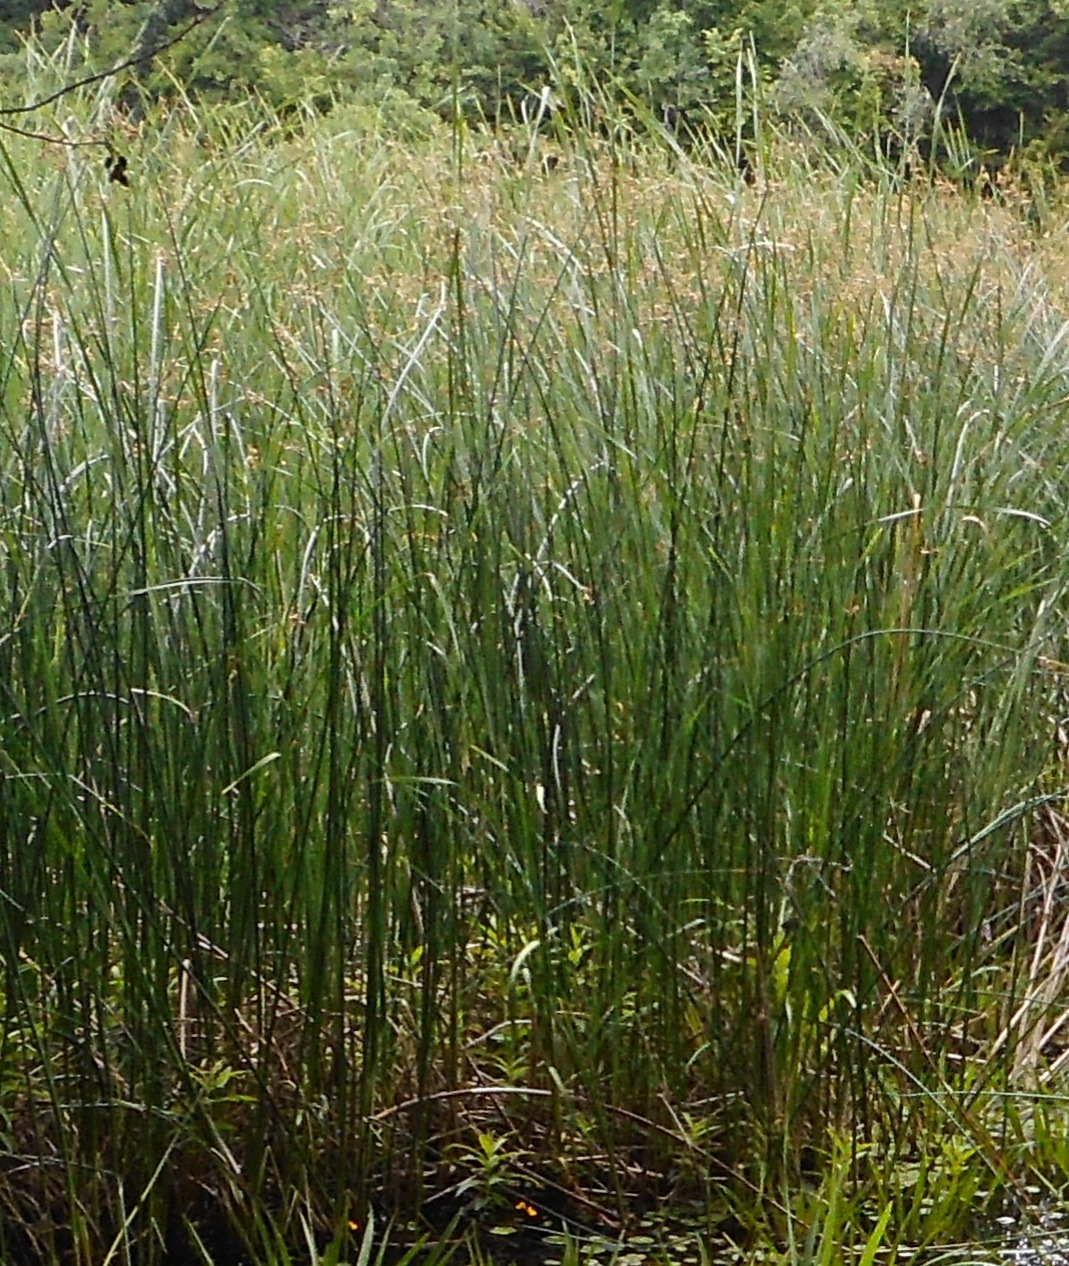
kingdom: Plantae
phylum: Tracheophyta
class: Liliopsida
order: Poales
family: Cyperaceae
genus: Schoenoplectus
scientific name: Schoenoplectus lacustris
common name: Common club-rush
